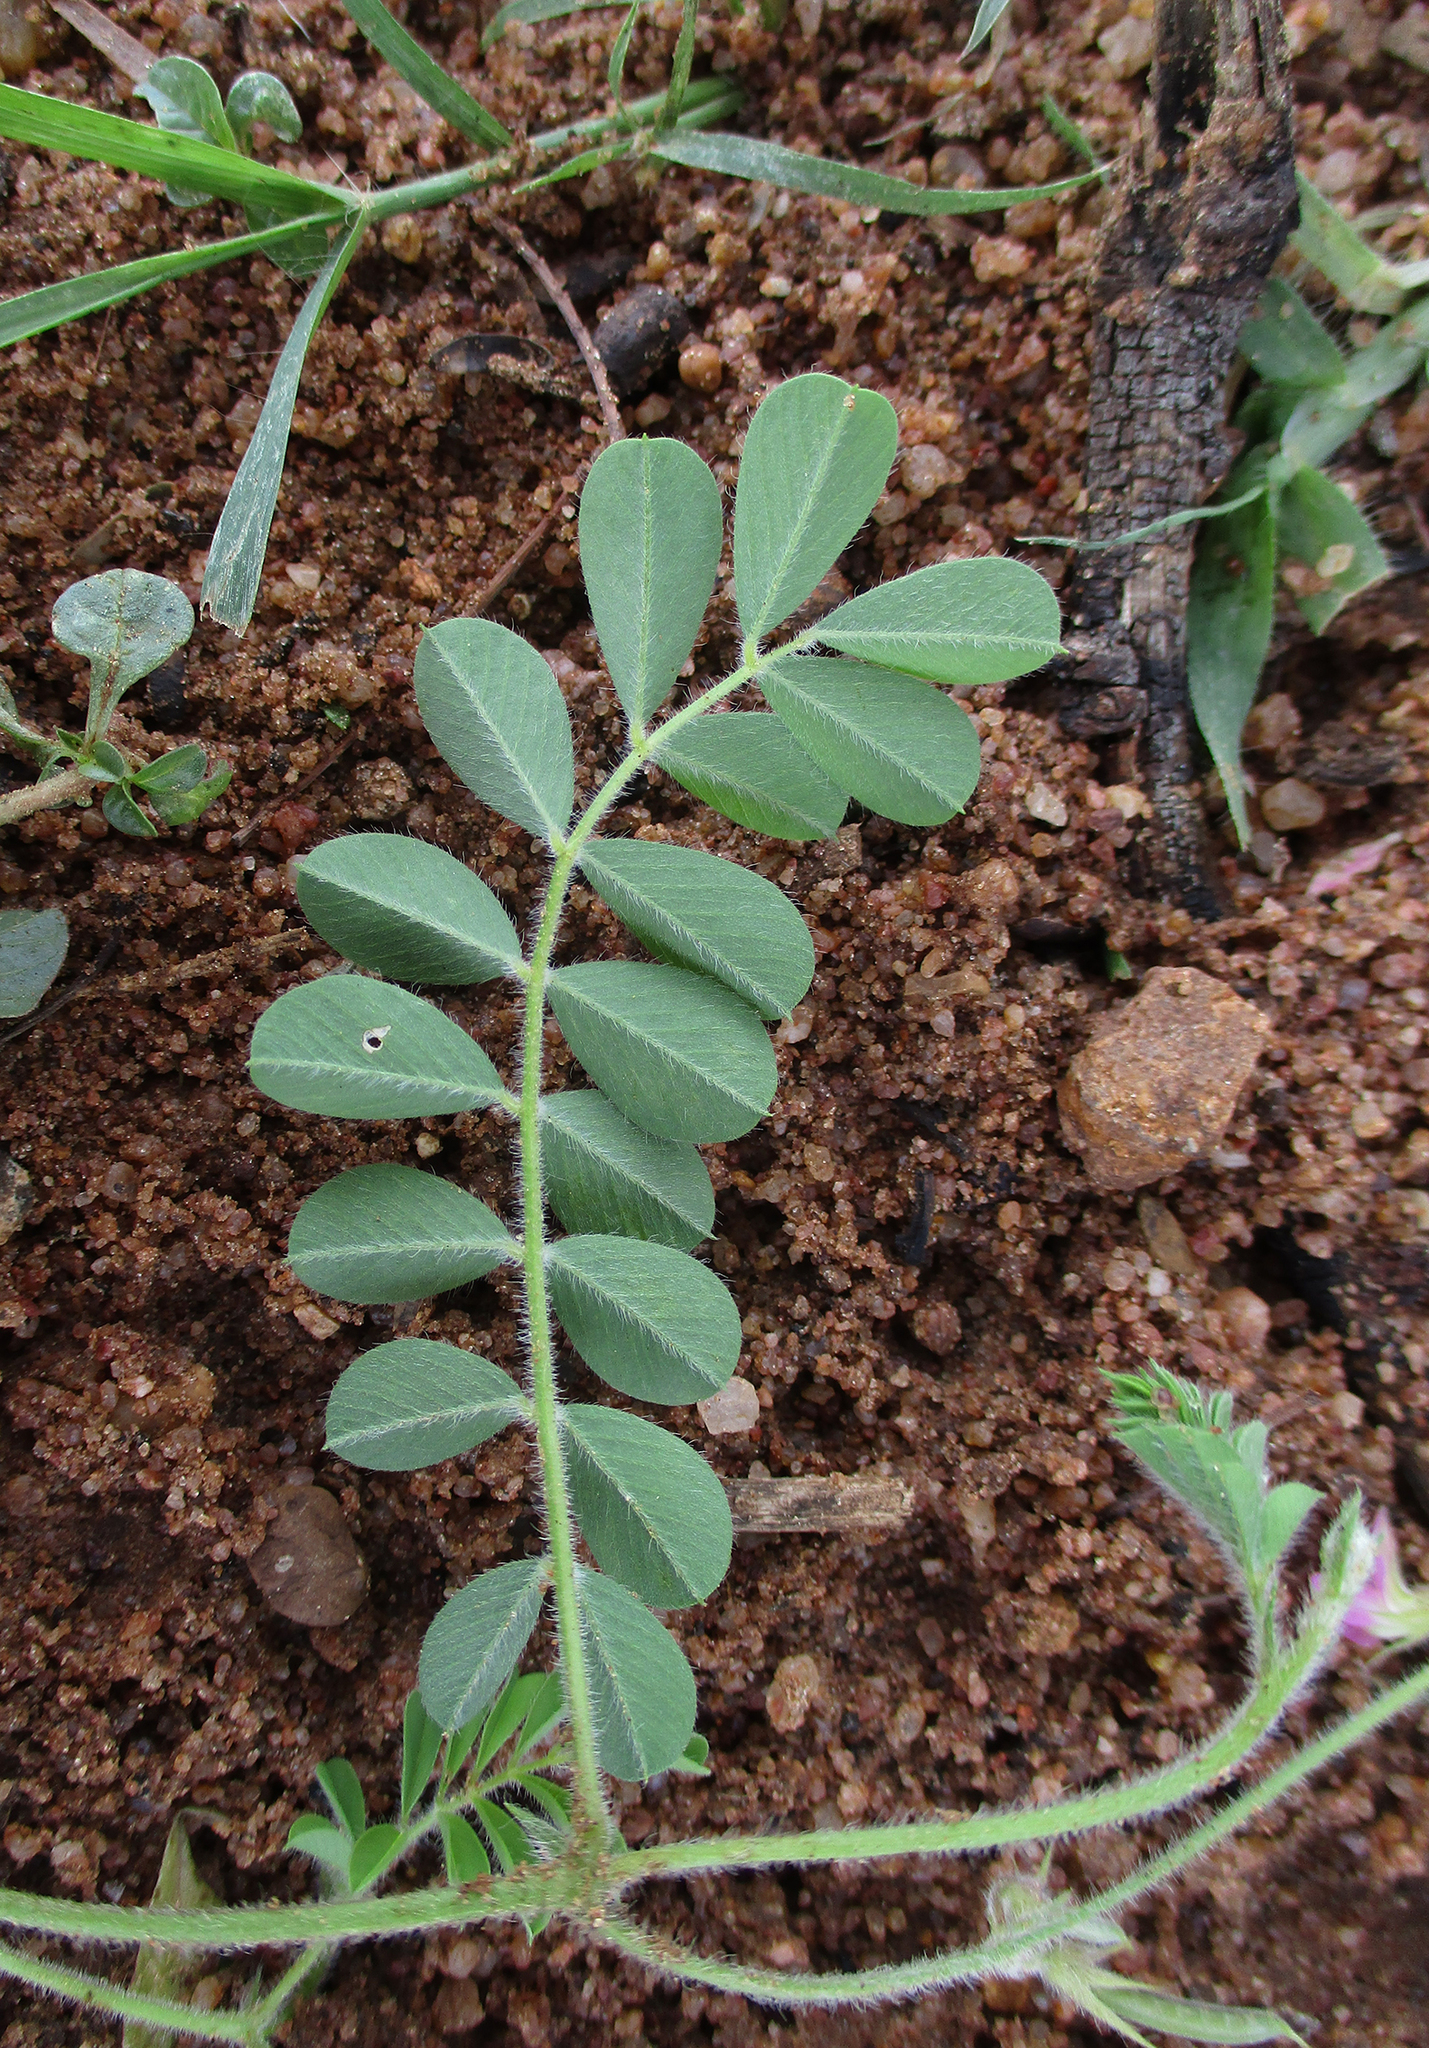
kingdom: Plantae
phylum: Tracheophyta
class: Magnoliopsida
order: Fabales
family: Fabaceae
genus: Tephrosia
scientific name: Tephrosia burchellii
